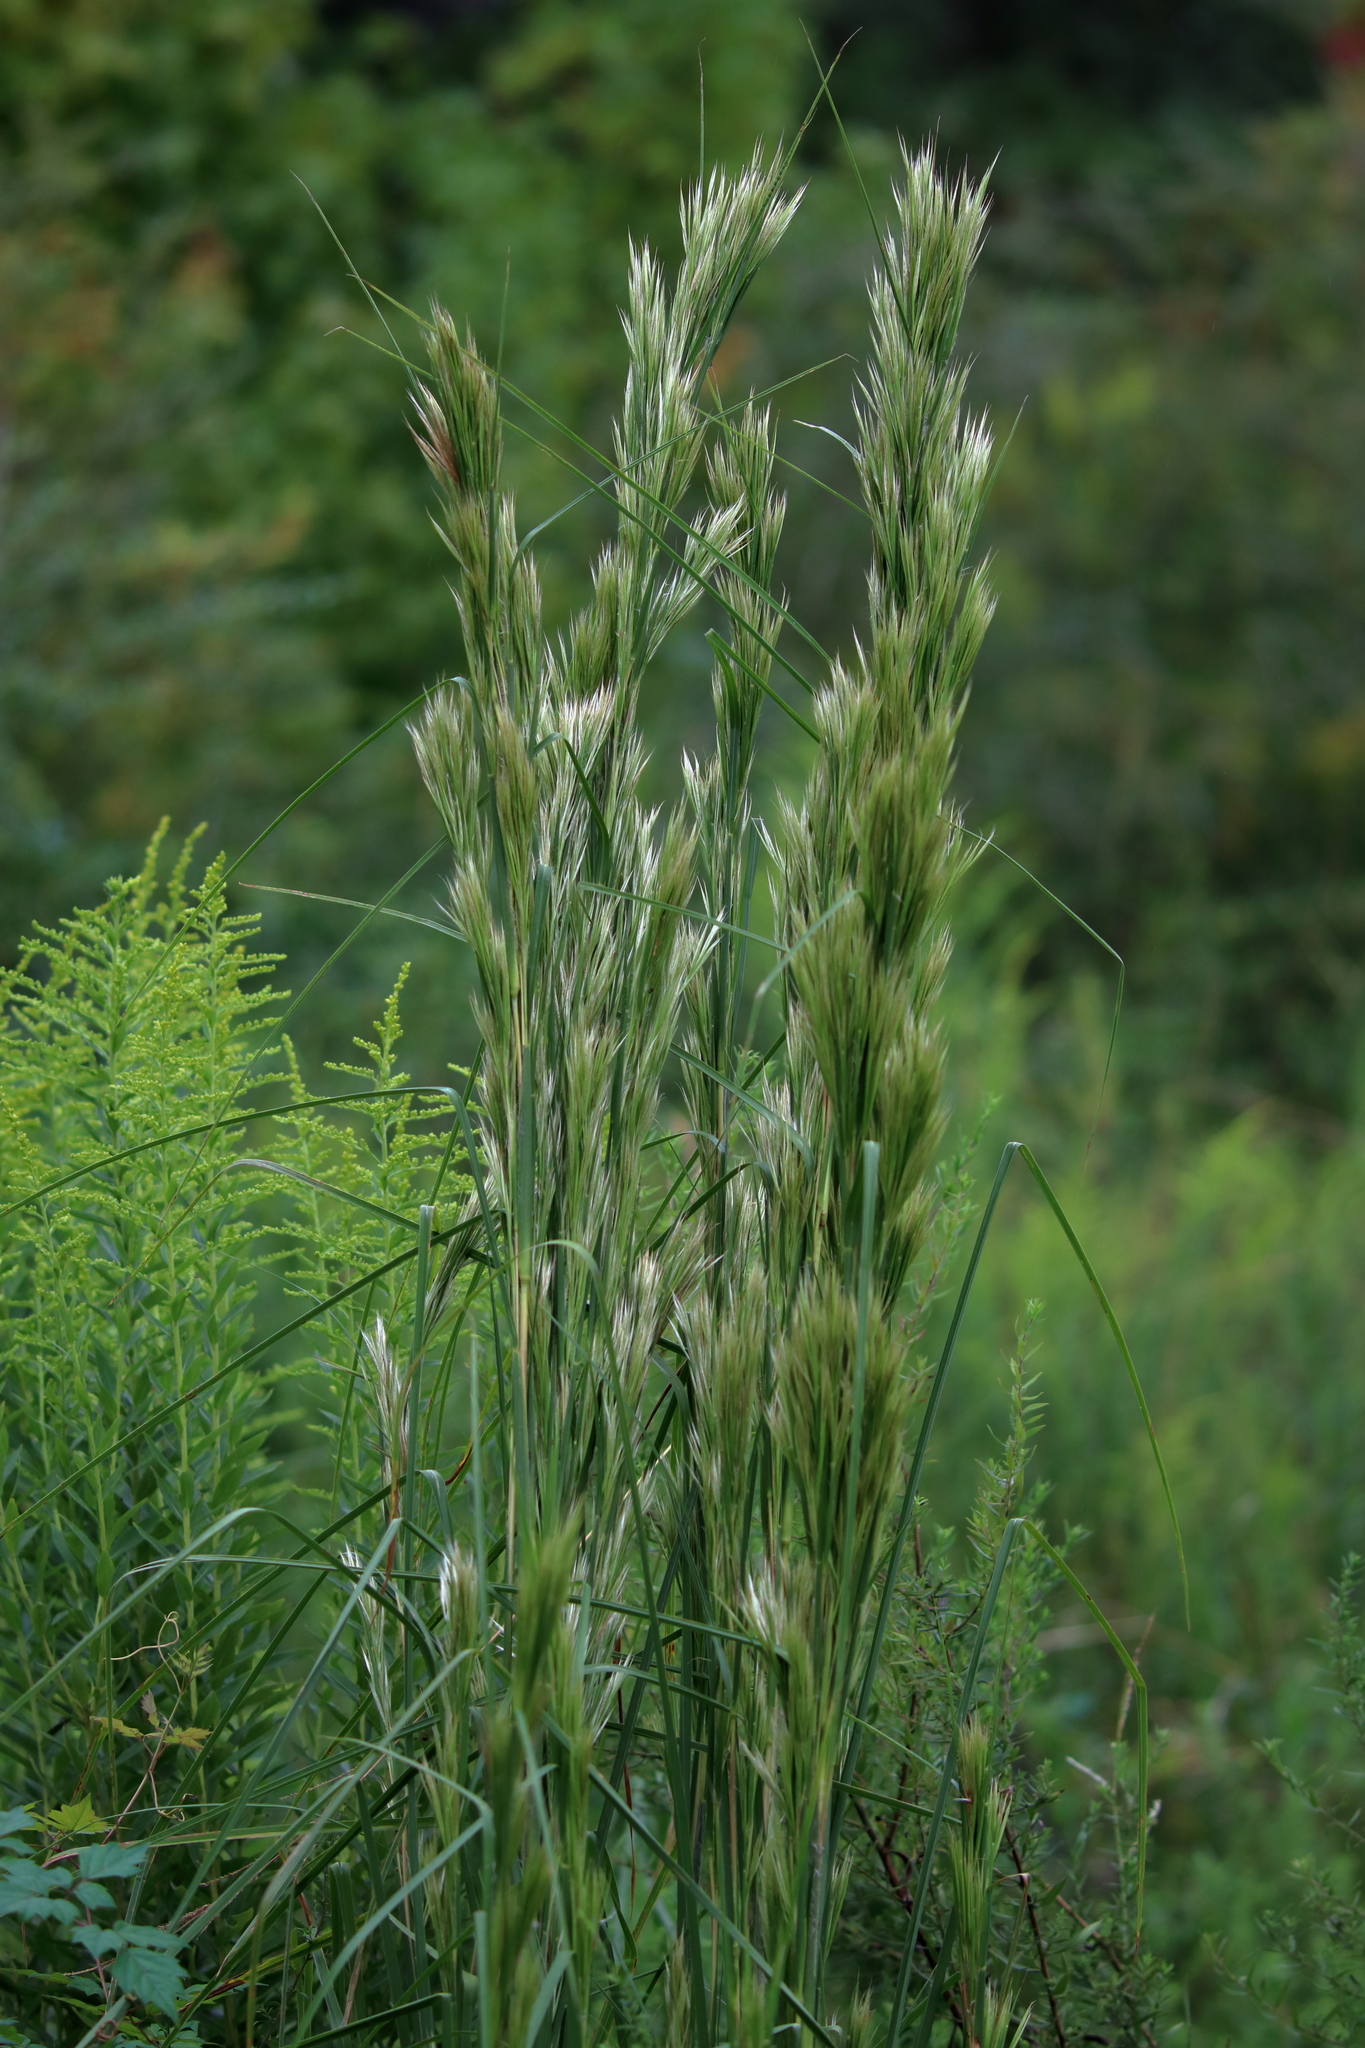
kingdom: Plantae
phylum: Tracheophyta
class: Liliopsida
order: Poales
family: Poaceae
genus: Andropogon
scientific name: Andropogon tenuispatheus
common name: Bushy bluestem
